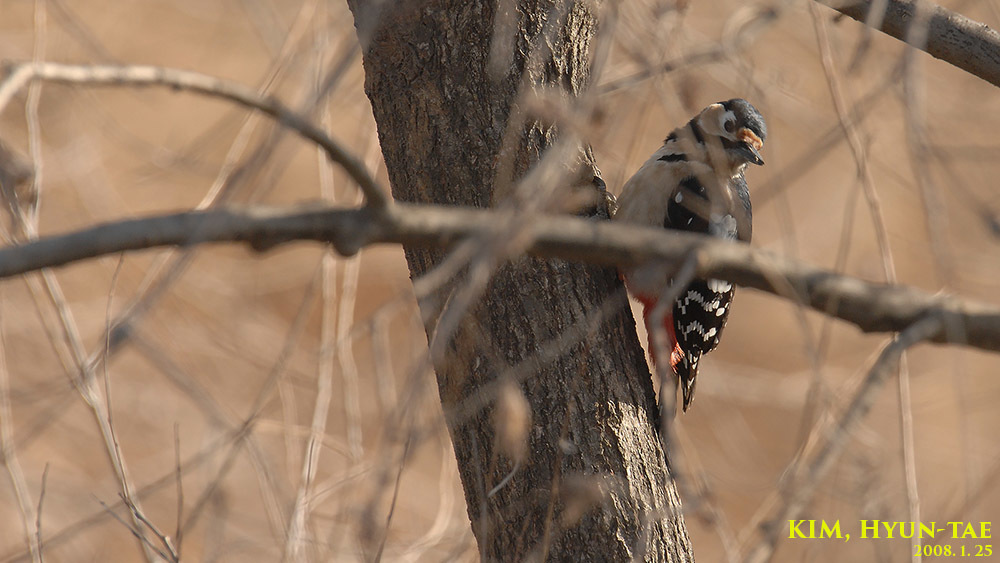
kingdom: Animalia
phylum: Chordata
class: Aves
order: Piciformes
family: Picidae
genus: Dendrocopos
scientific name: Dendrocopos major
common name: Great spotted woodpecker
